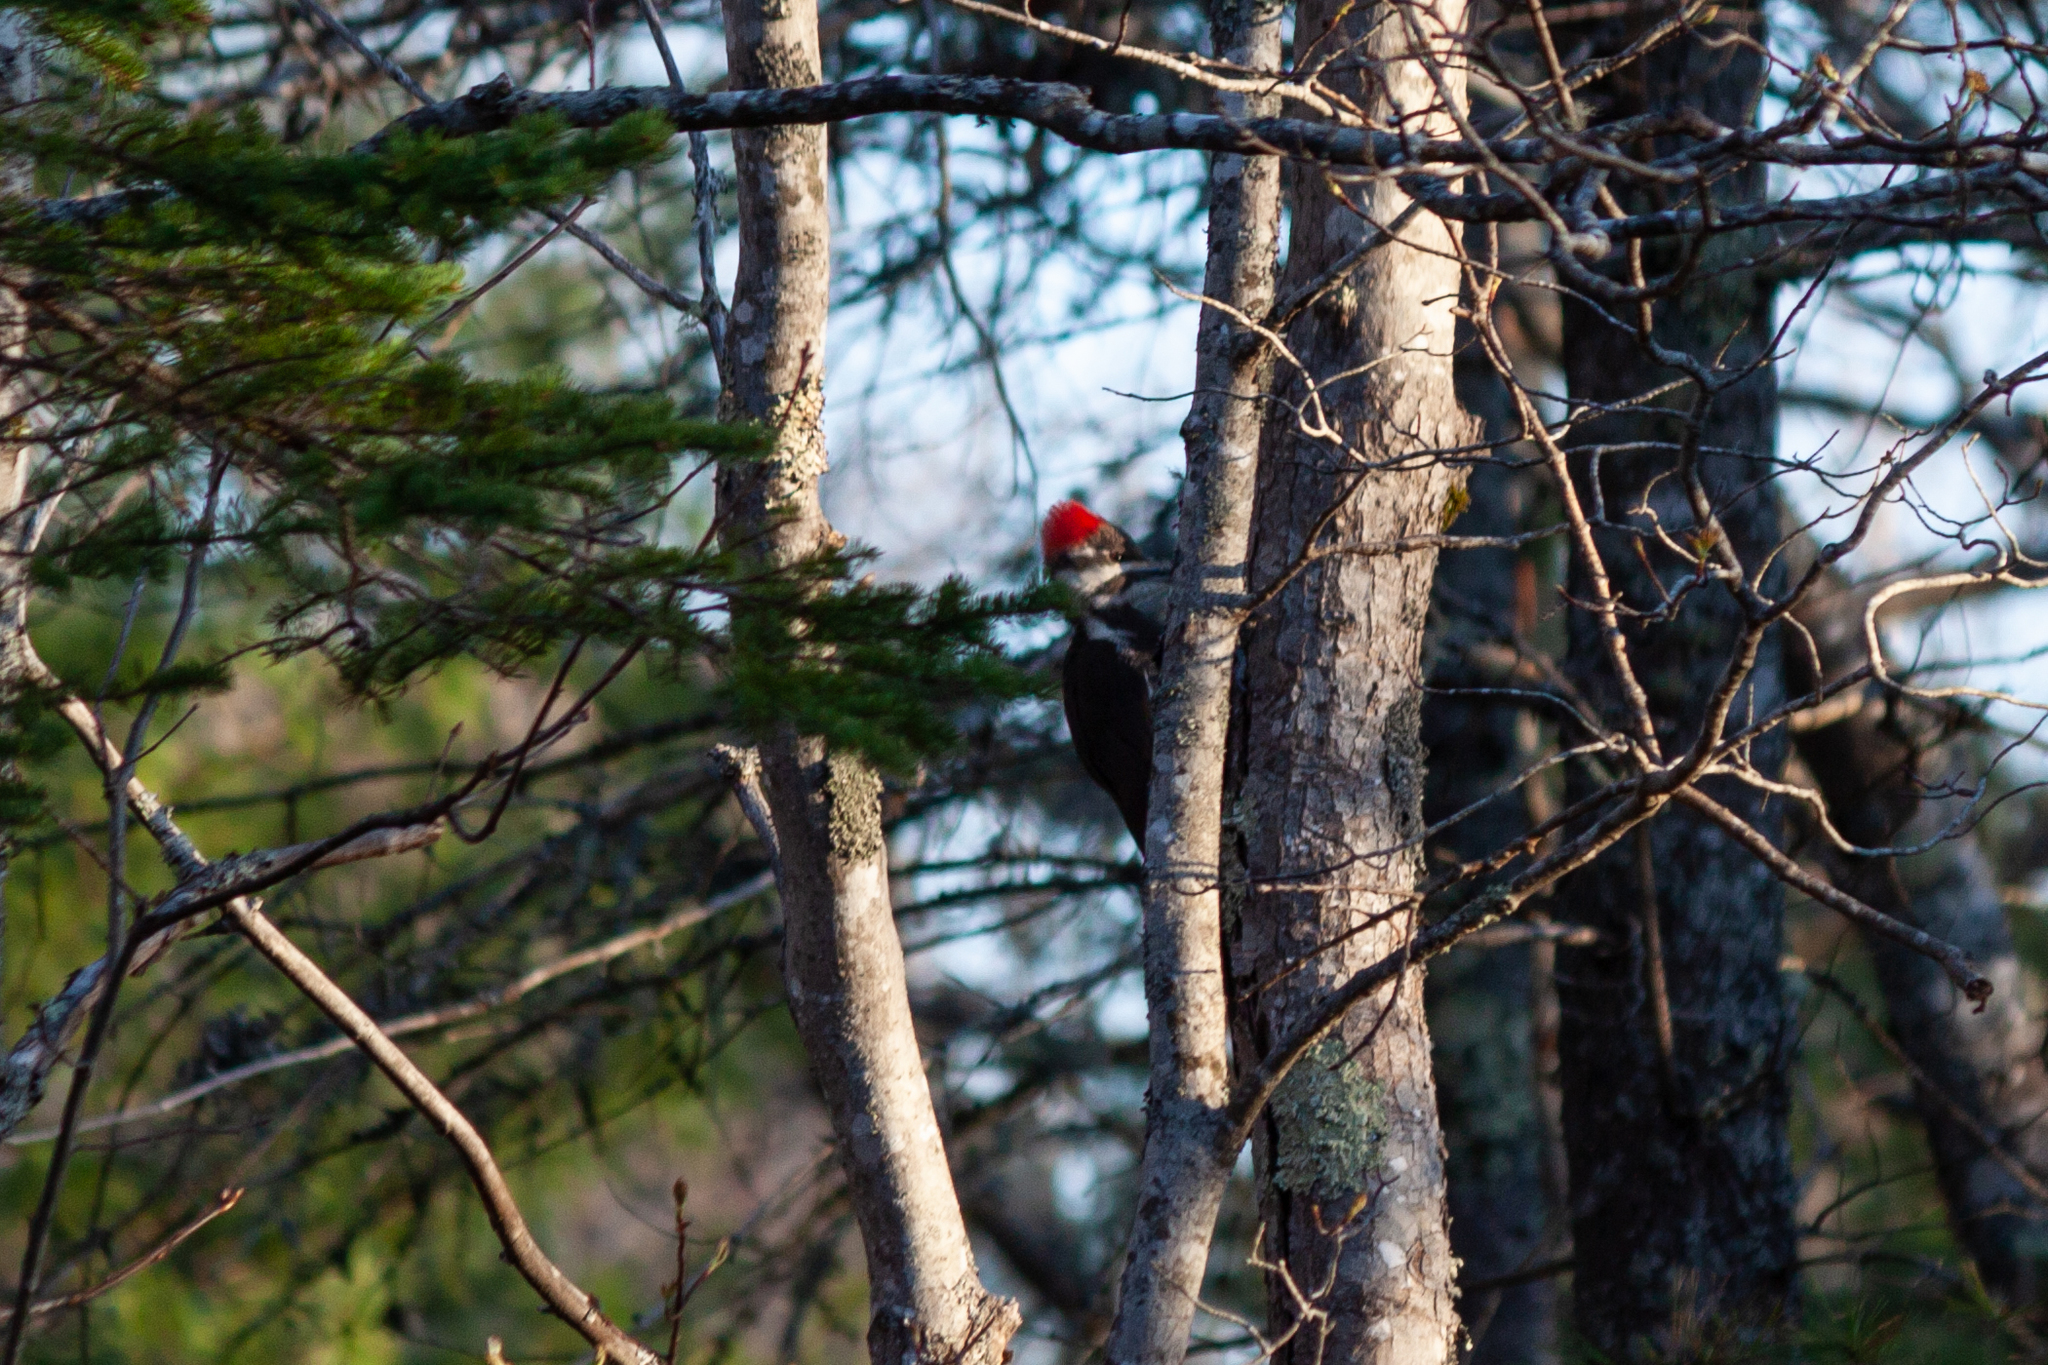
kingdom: Animalia
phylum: Chordata
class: Aves
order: Piciformes
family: Picidae
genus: Dryocopus
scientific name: Dryocopus pileatus
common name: Pileated woodpecker
